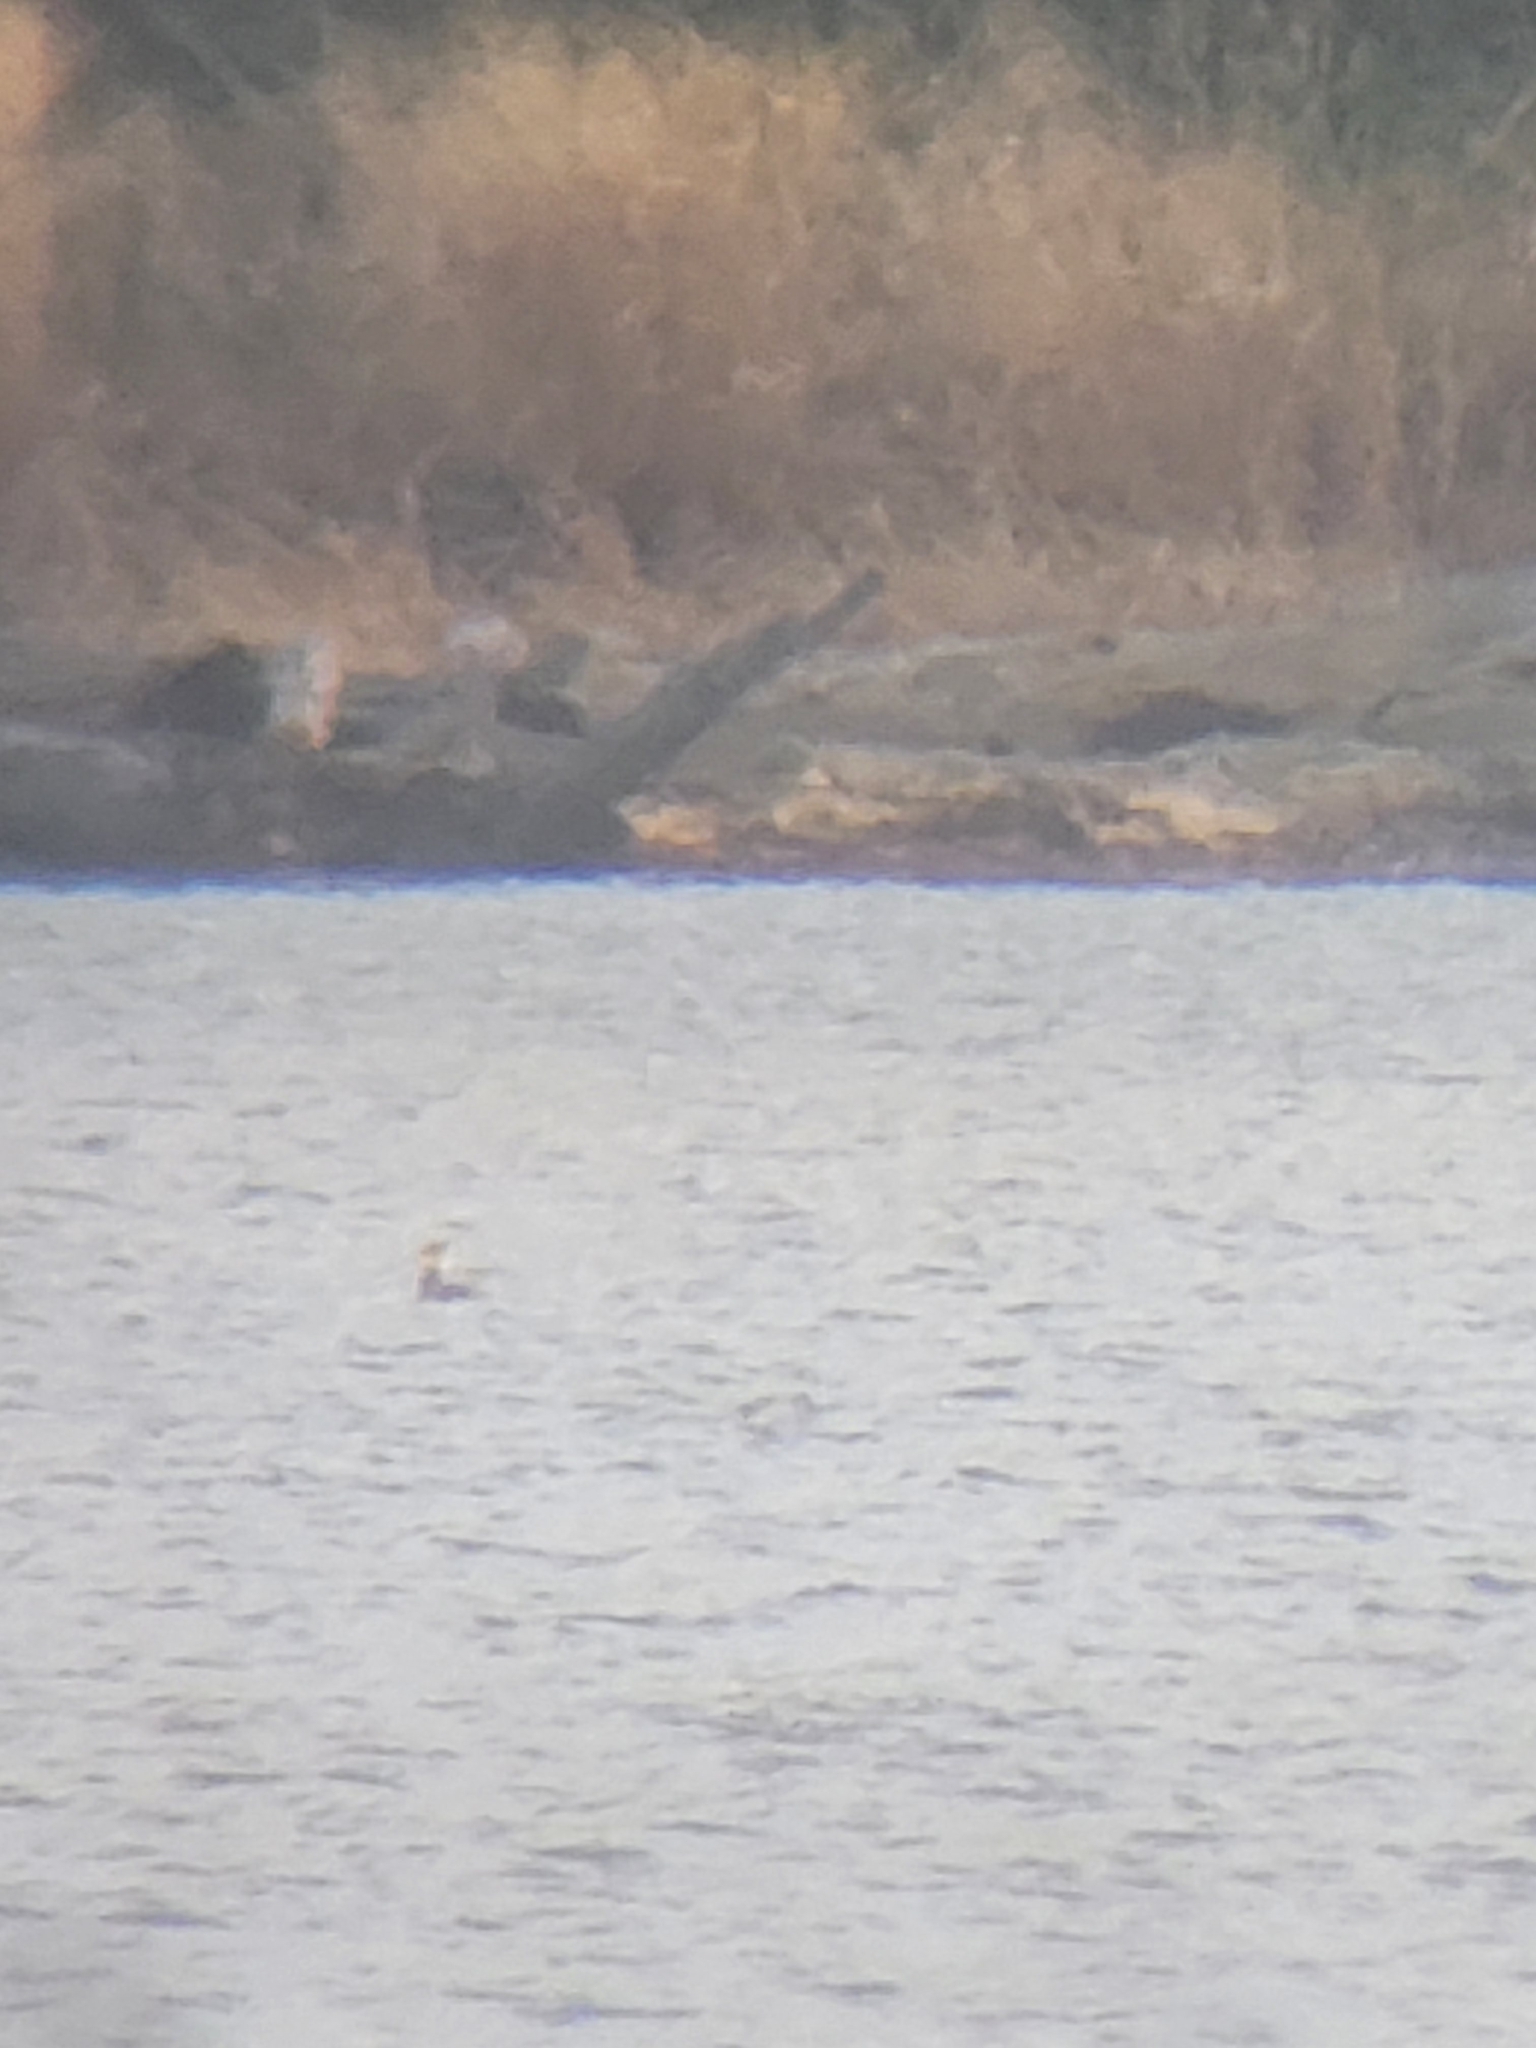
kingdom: Animalia
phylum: Chordata
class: Aves
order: Podicipediformes
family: Podicipedidae
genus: Podiceps
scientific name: Podiceps grisegena
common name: Red-necked grebe
